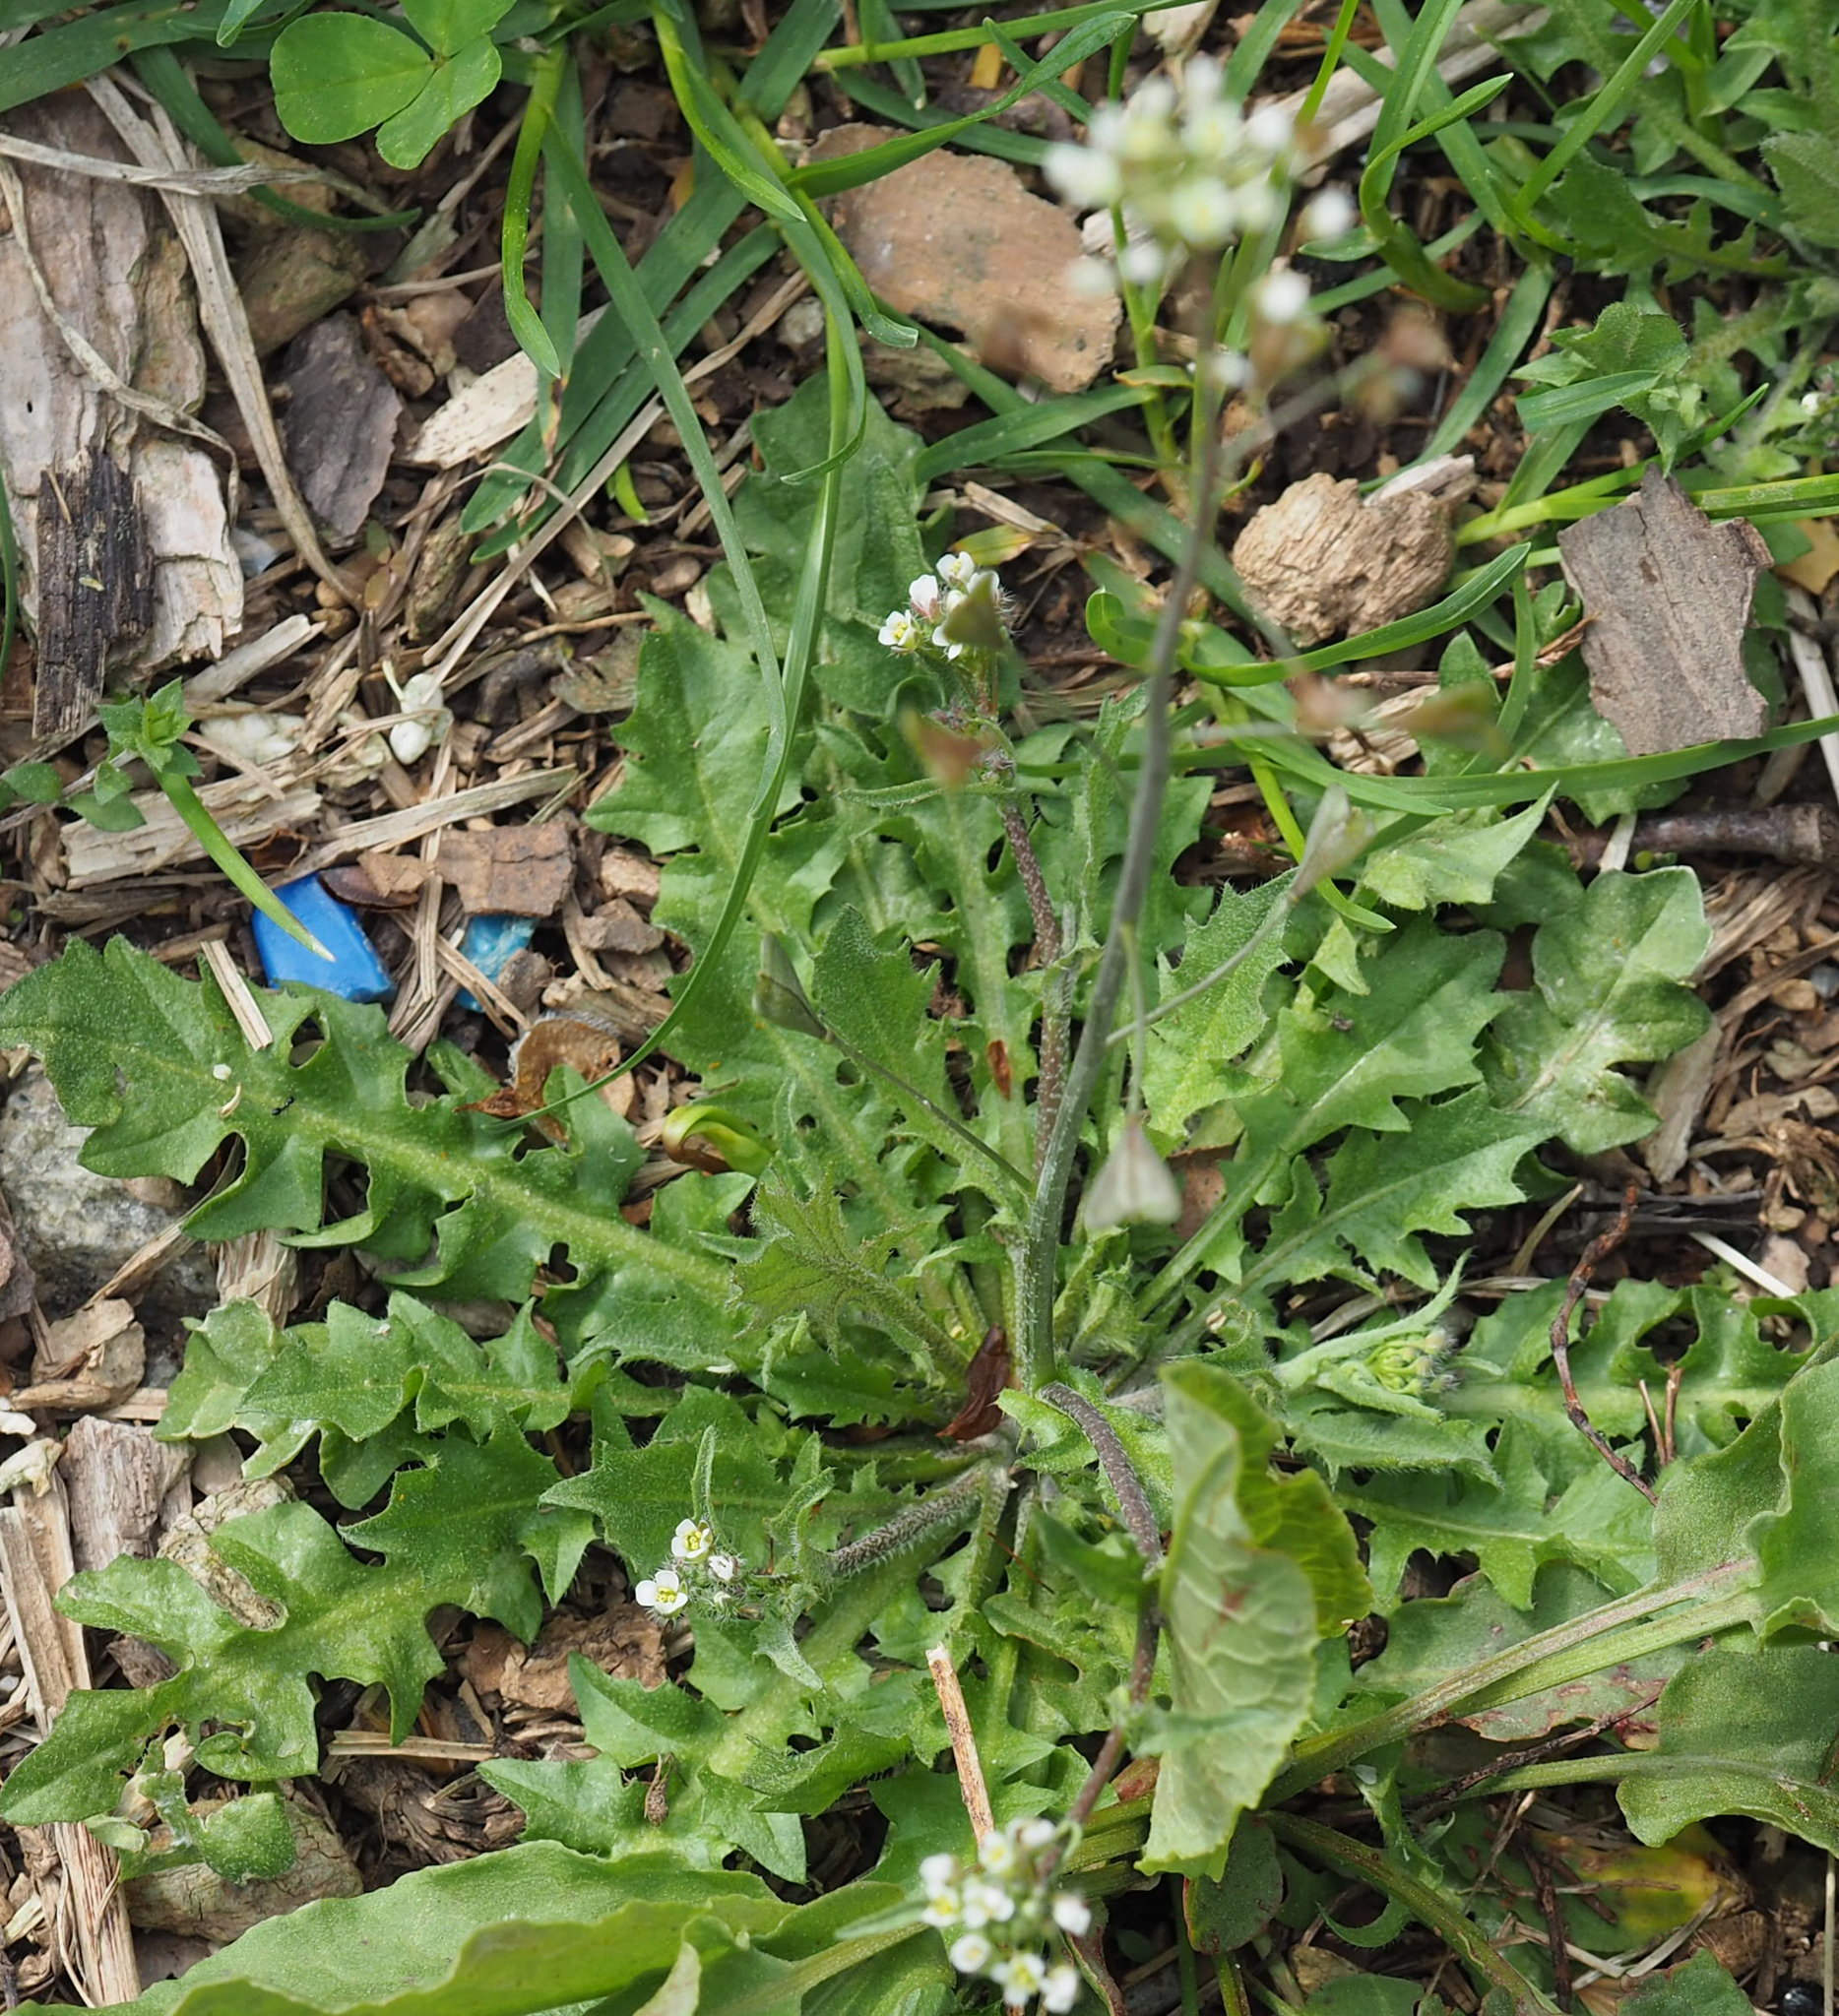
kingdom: Plantae
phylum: Tracheophyta
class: Magnoliopsida
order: Brassicales
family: Brassicaceae
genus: Capsella
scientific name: Capsella bursa-pastoris
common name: Shepherd's purse
